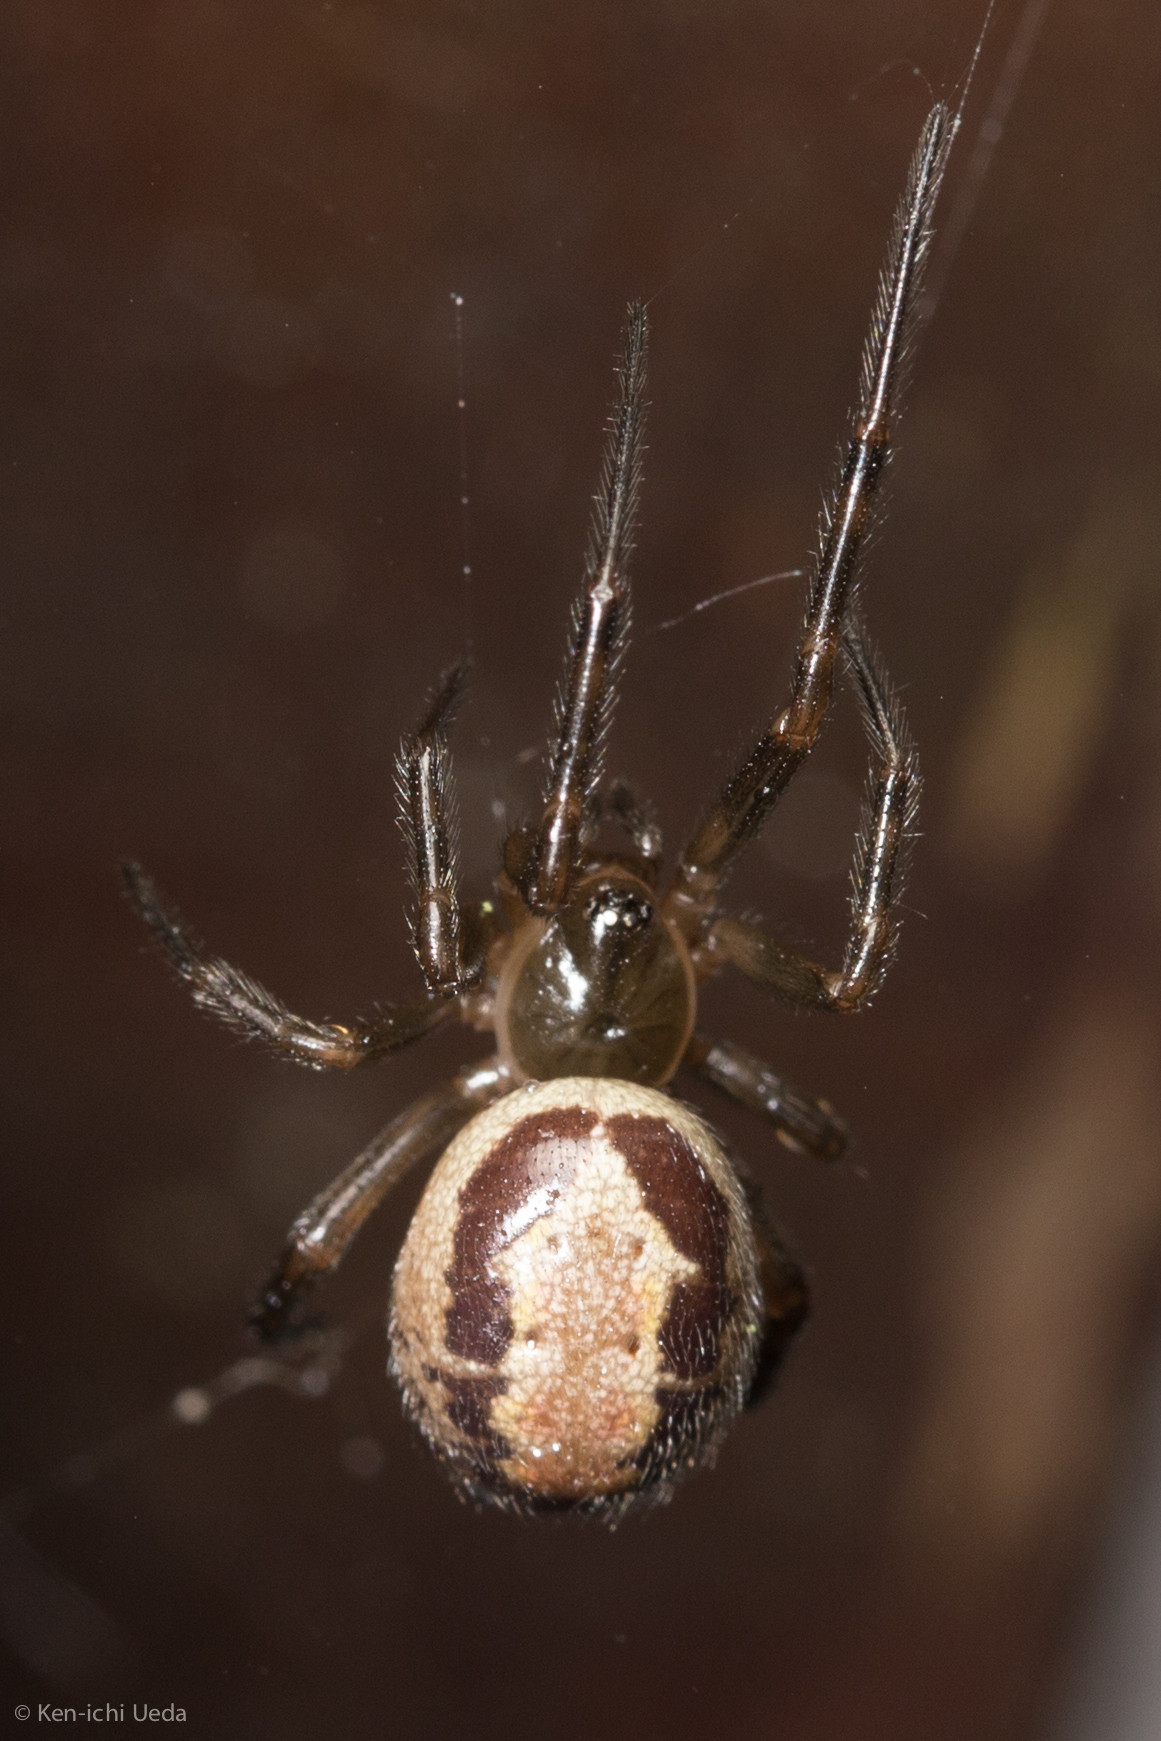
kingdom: Animalia
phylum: Arthropoda
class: Arachnida
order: Araneae
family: Theridiidae
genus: Steatoda
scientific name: Steatoda nobilis
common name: Cobweb weaver
